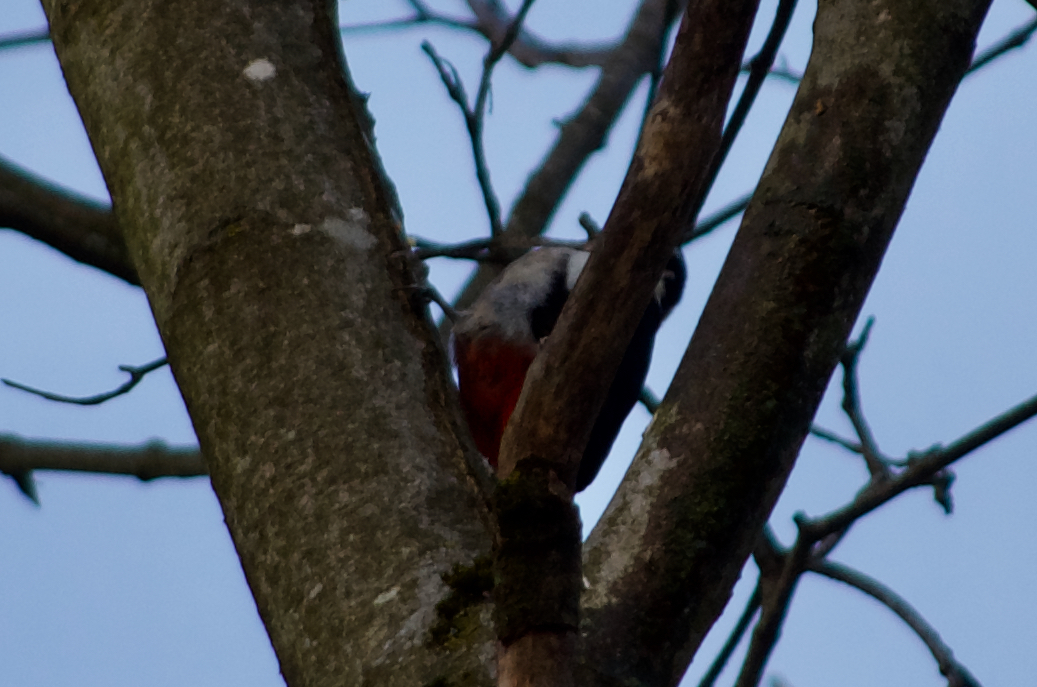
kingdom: Animalia
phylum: Chordata
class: Aves
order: Piciformes
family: Picidae
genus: Dendrocopos
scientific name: Dendrocopos major
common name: Great spotted woodpecker
